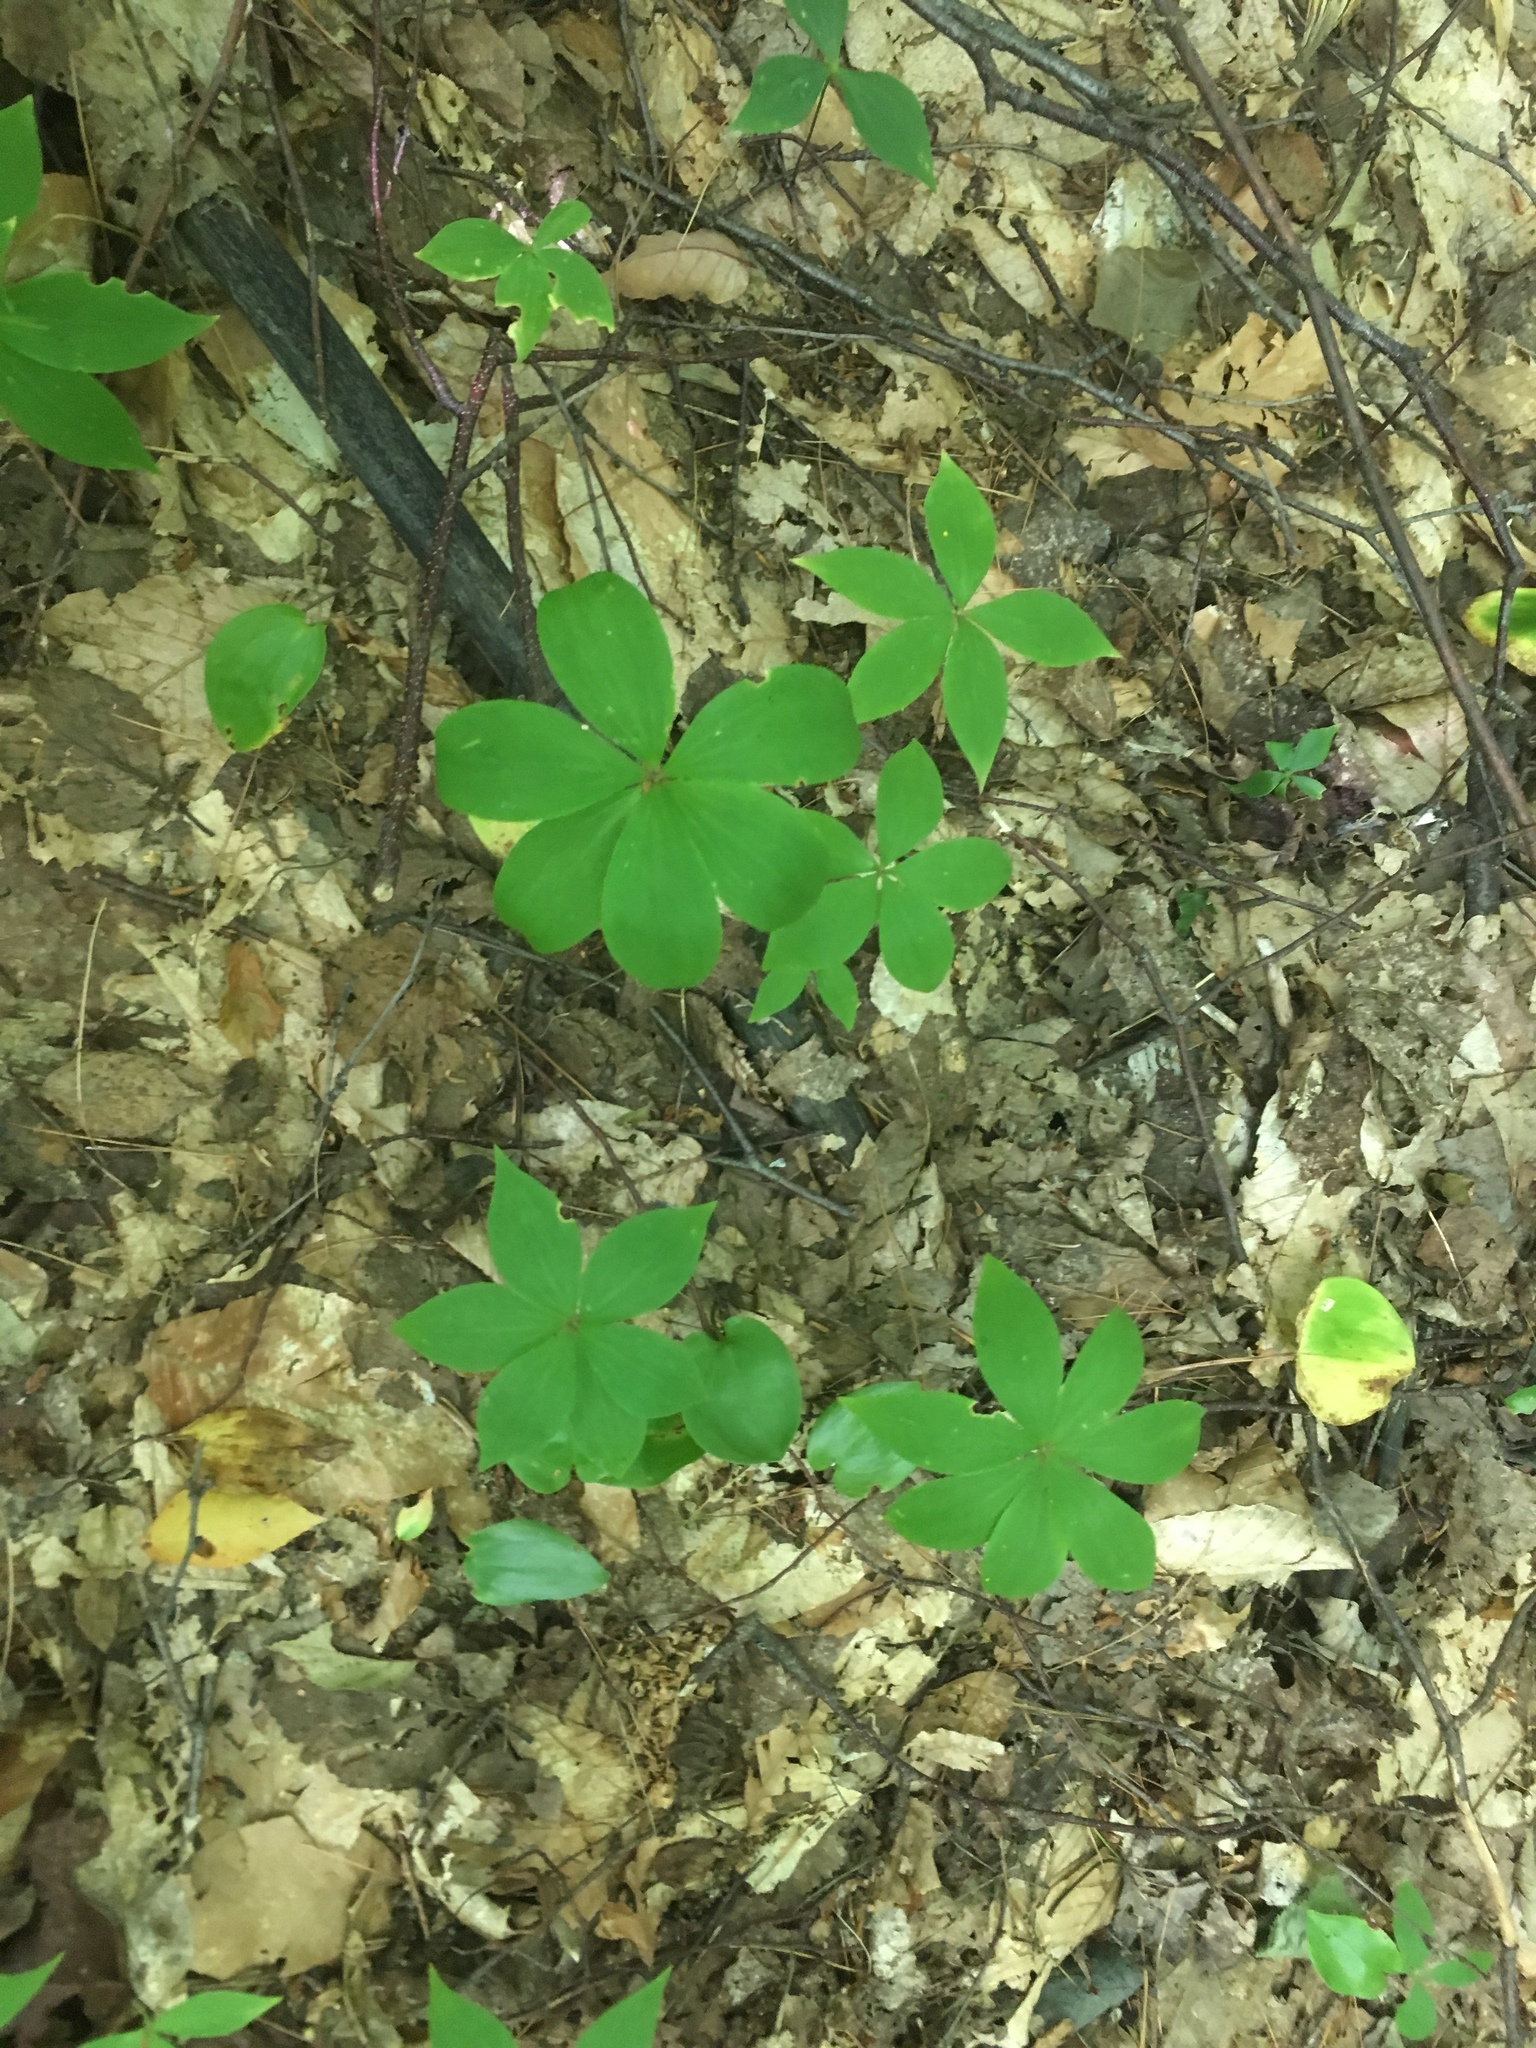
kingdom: Plantae
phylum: Tracheophyta
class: Liliopsida
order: Liliales
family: Liliaceae
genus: Medeola
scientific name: Medeola virginiana
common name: Indian cucumber-root
